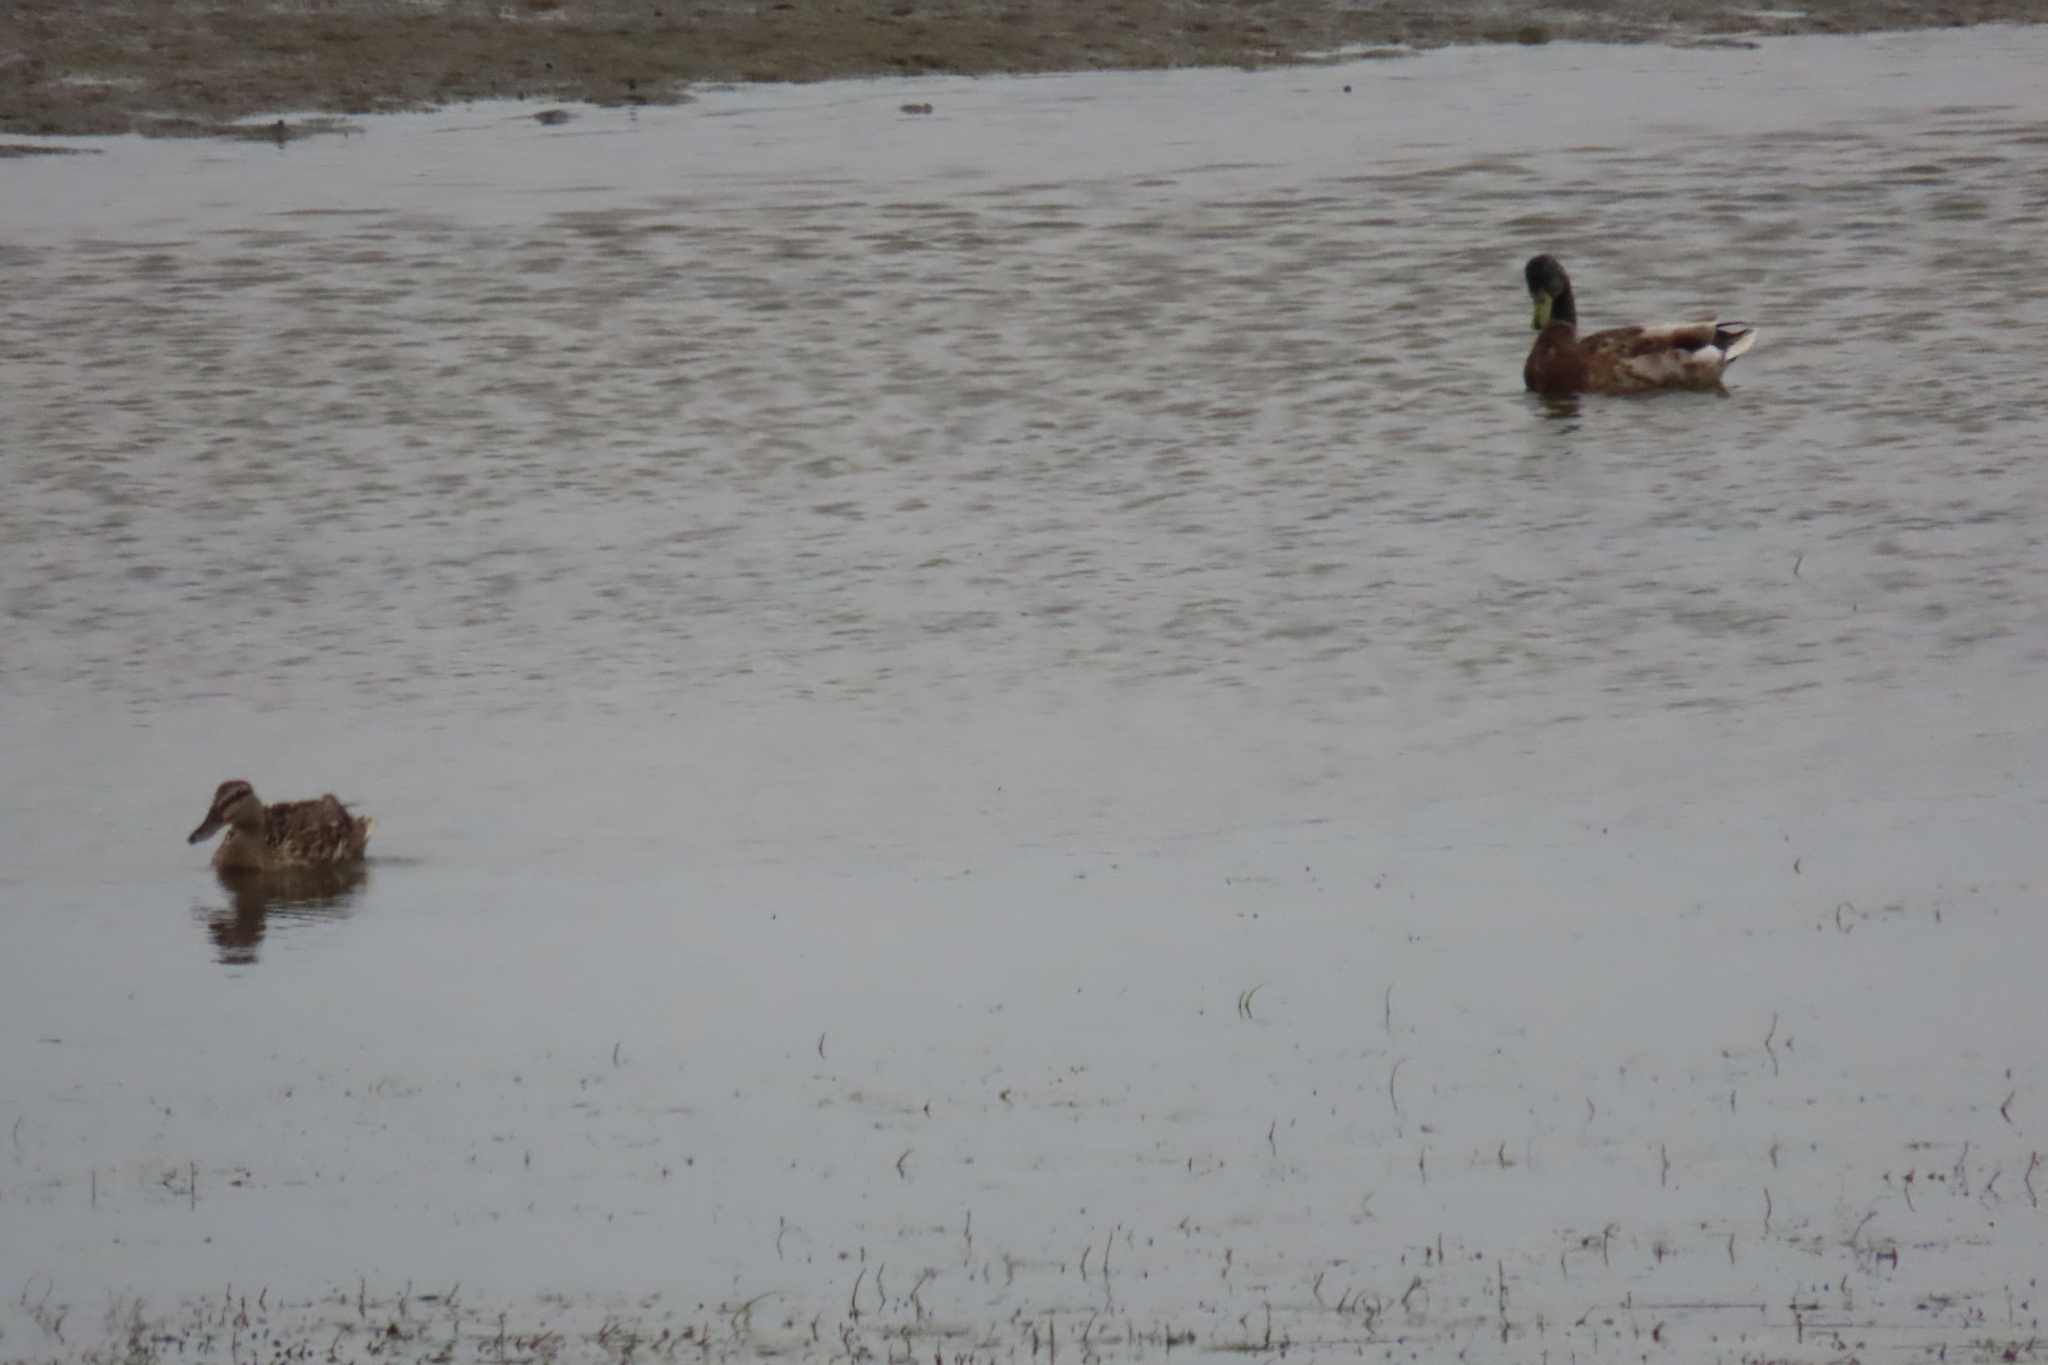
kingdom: Animalia
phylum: Chordata
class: Aves
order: Anseriformes
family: Anatidae
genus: Anas
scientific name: Anas platyrhynchos
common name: Mallard
